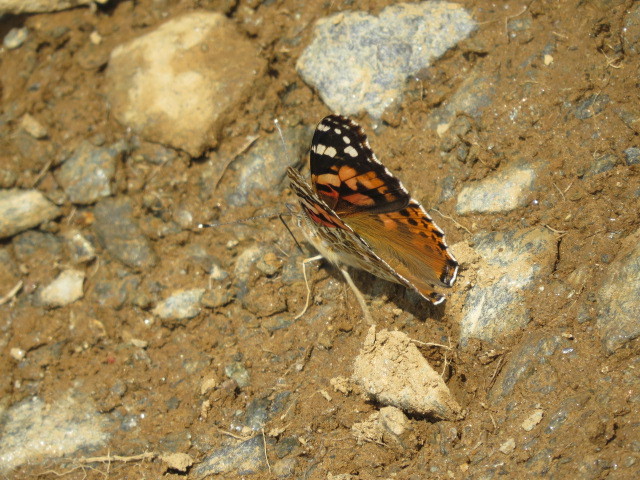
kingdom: Animalia
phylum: Arthropoda
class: Insecta
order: Lepidoptera
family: Nymphalidae
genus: Vanessa
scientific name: Vanessa cardui
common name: Painted lady
